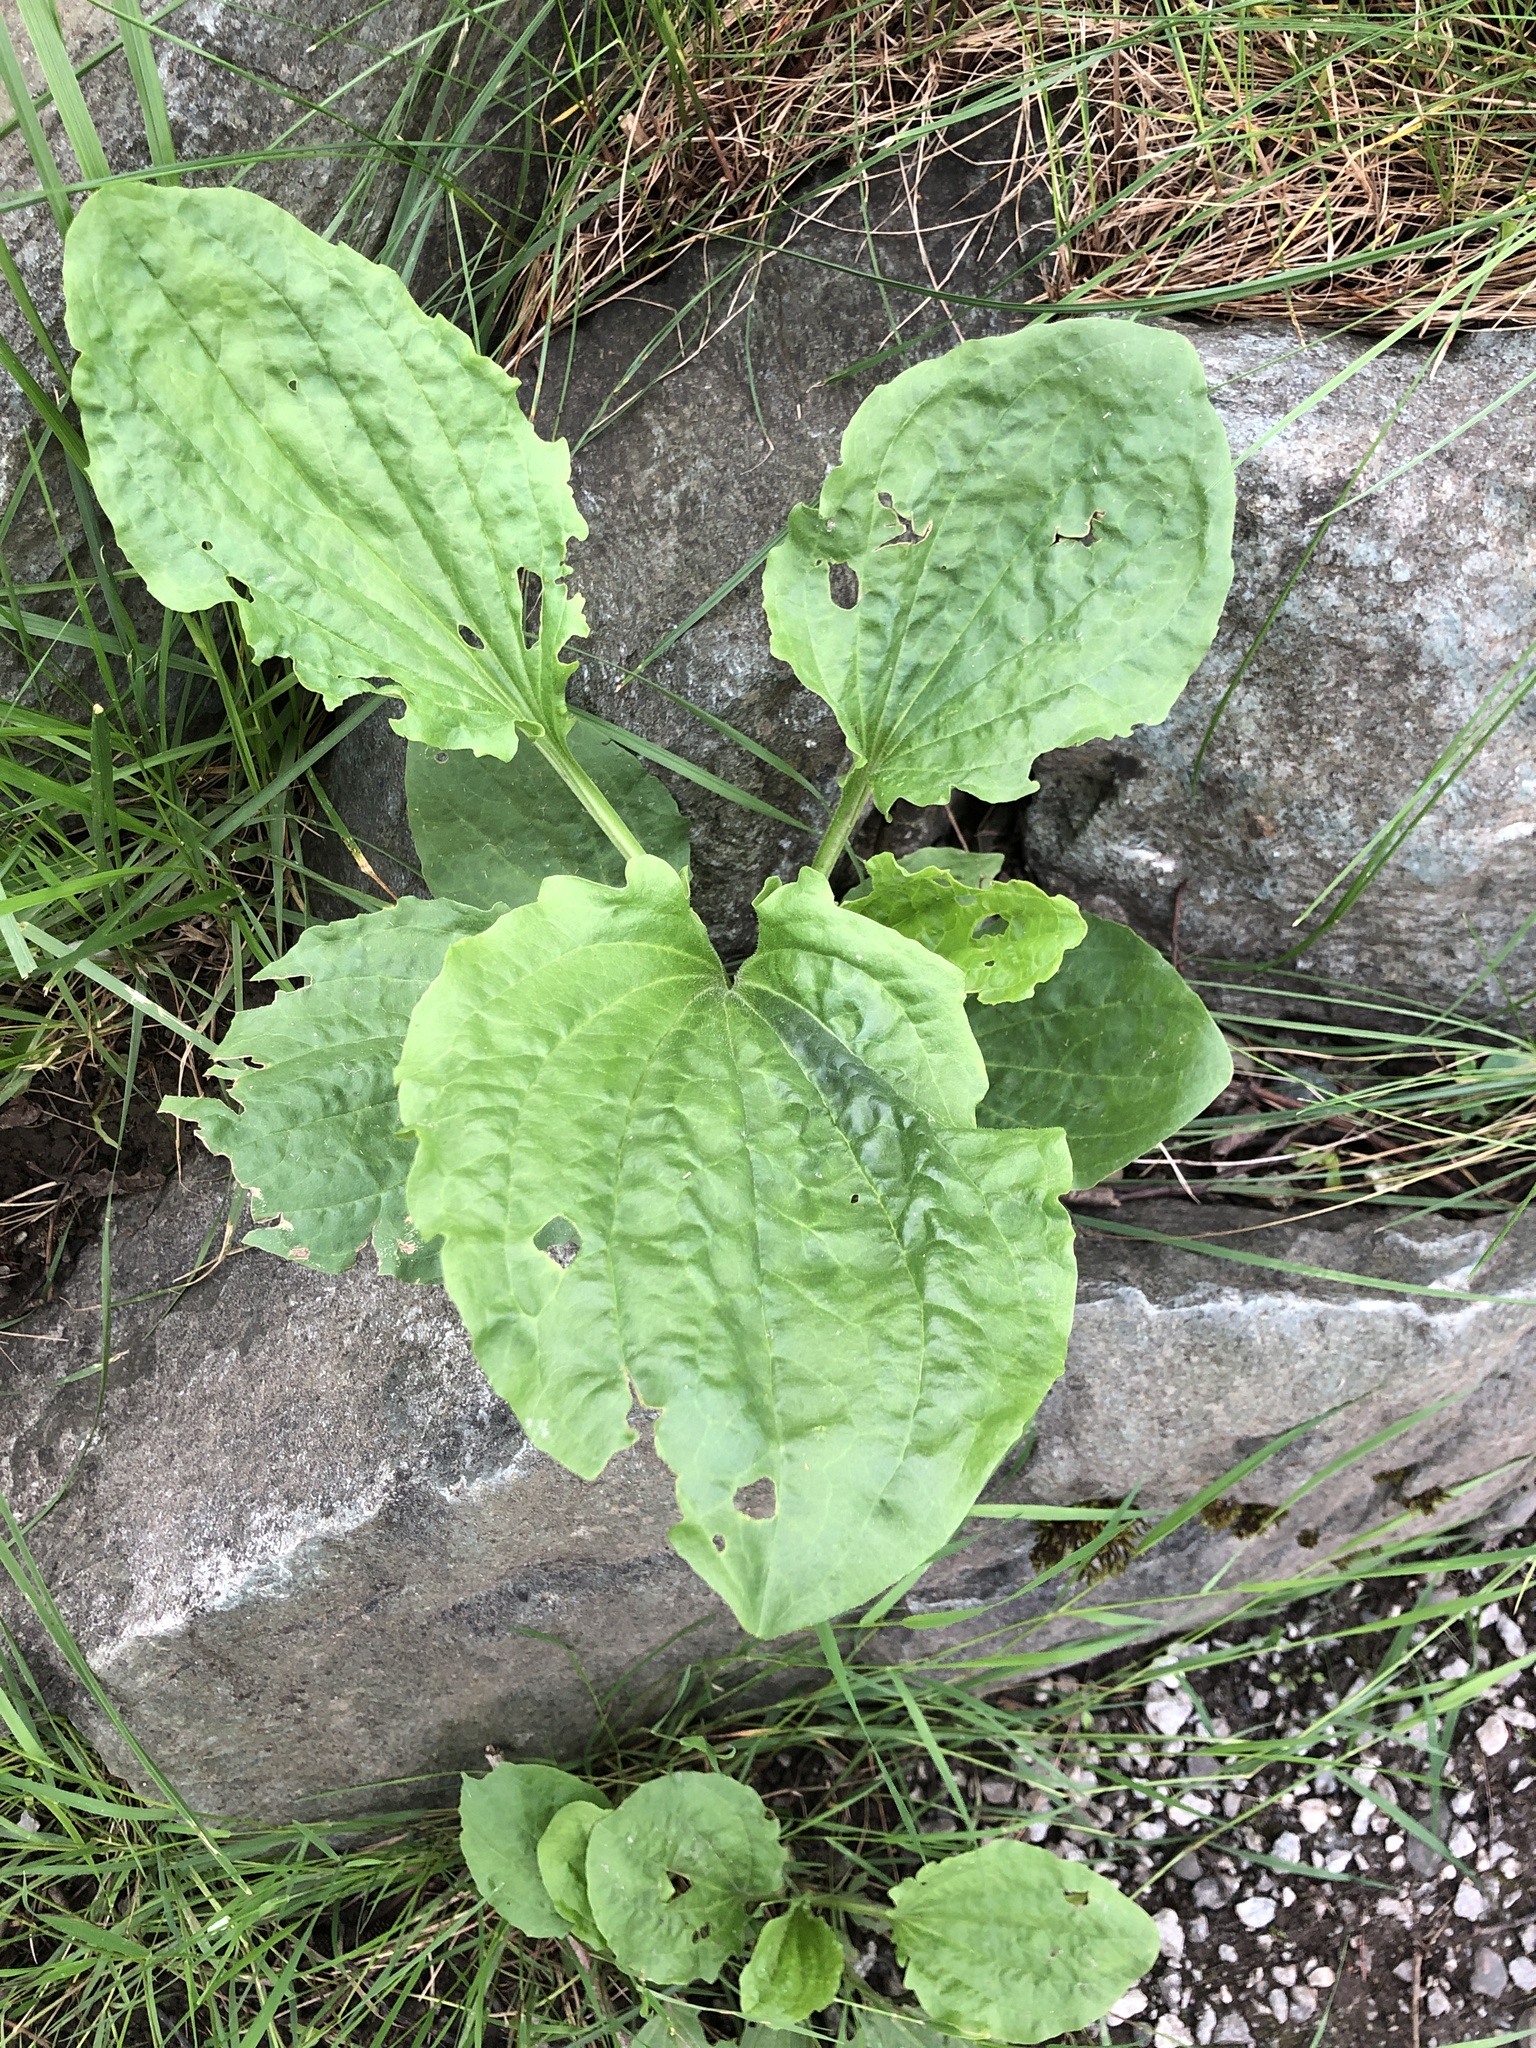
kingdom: Plantae
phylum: Tracheophyta
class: Magnoliopsida
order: Lamiales
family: Plantaginaceae
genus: Plantago
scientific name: Plantago major
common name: Common plantain
